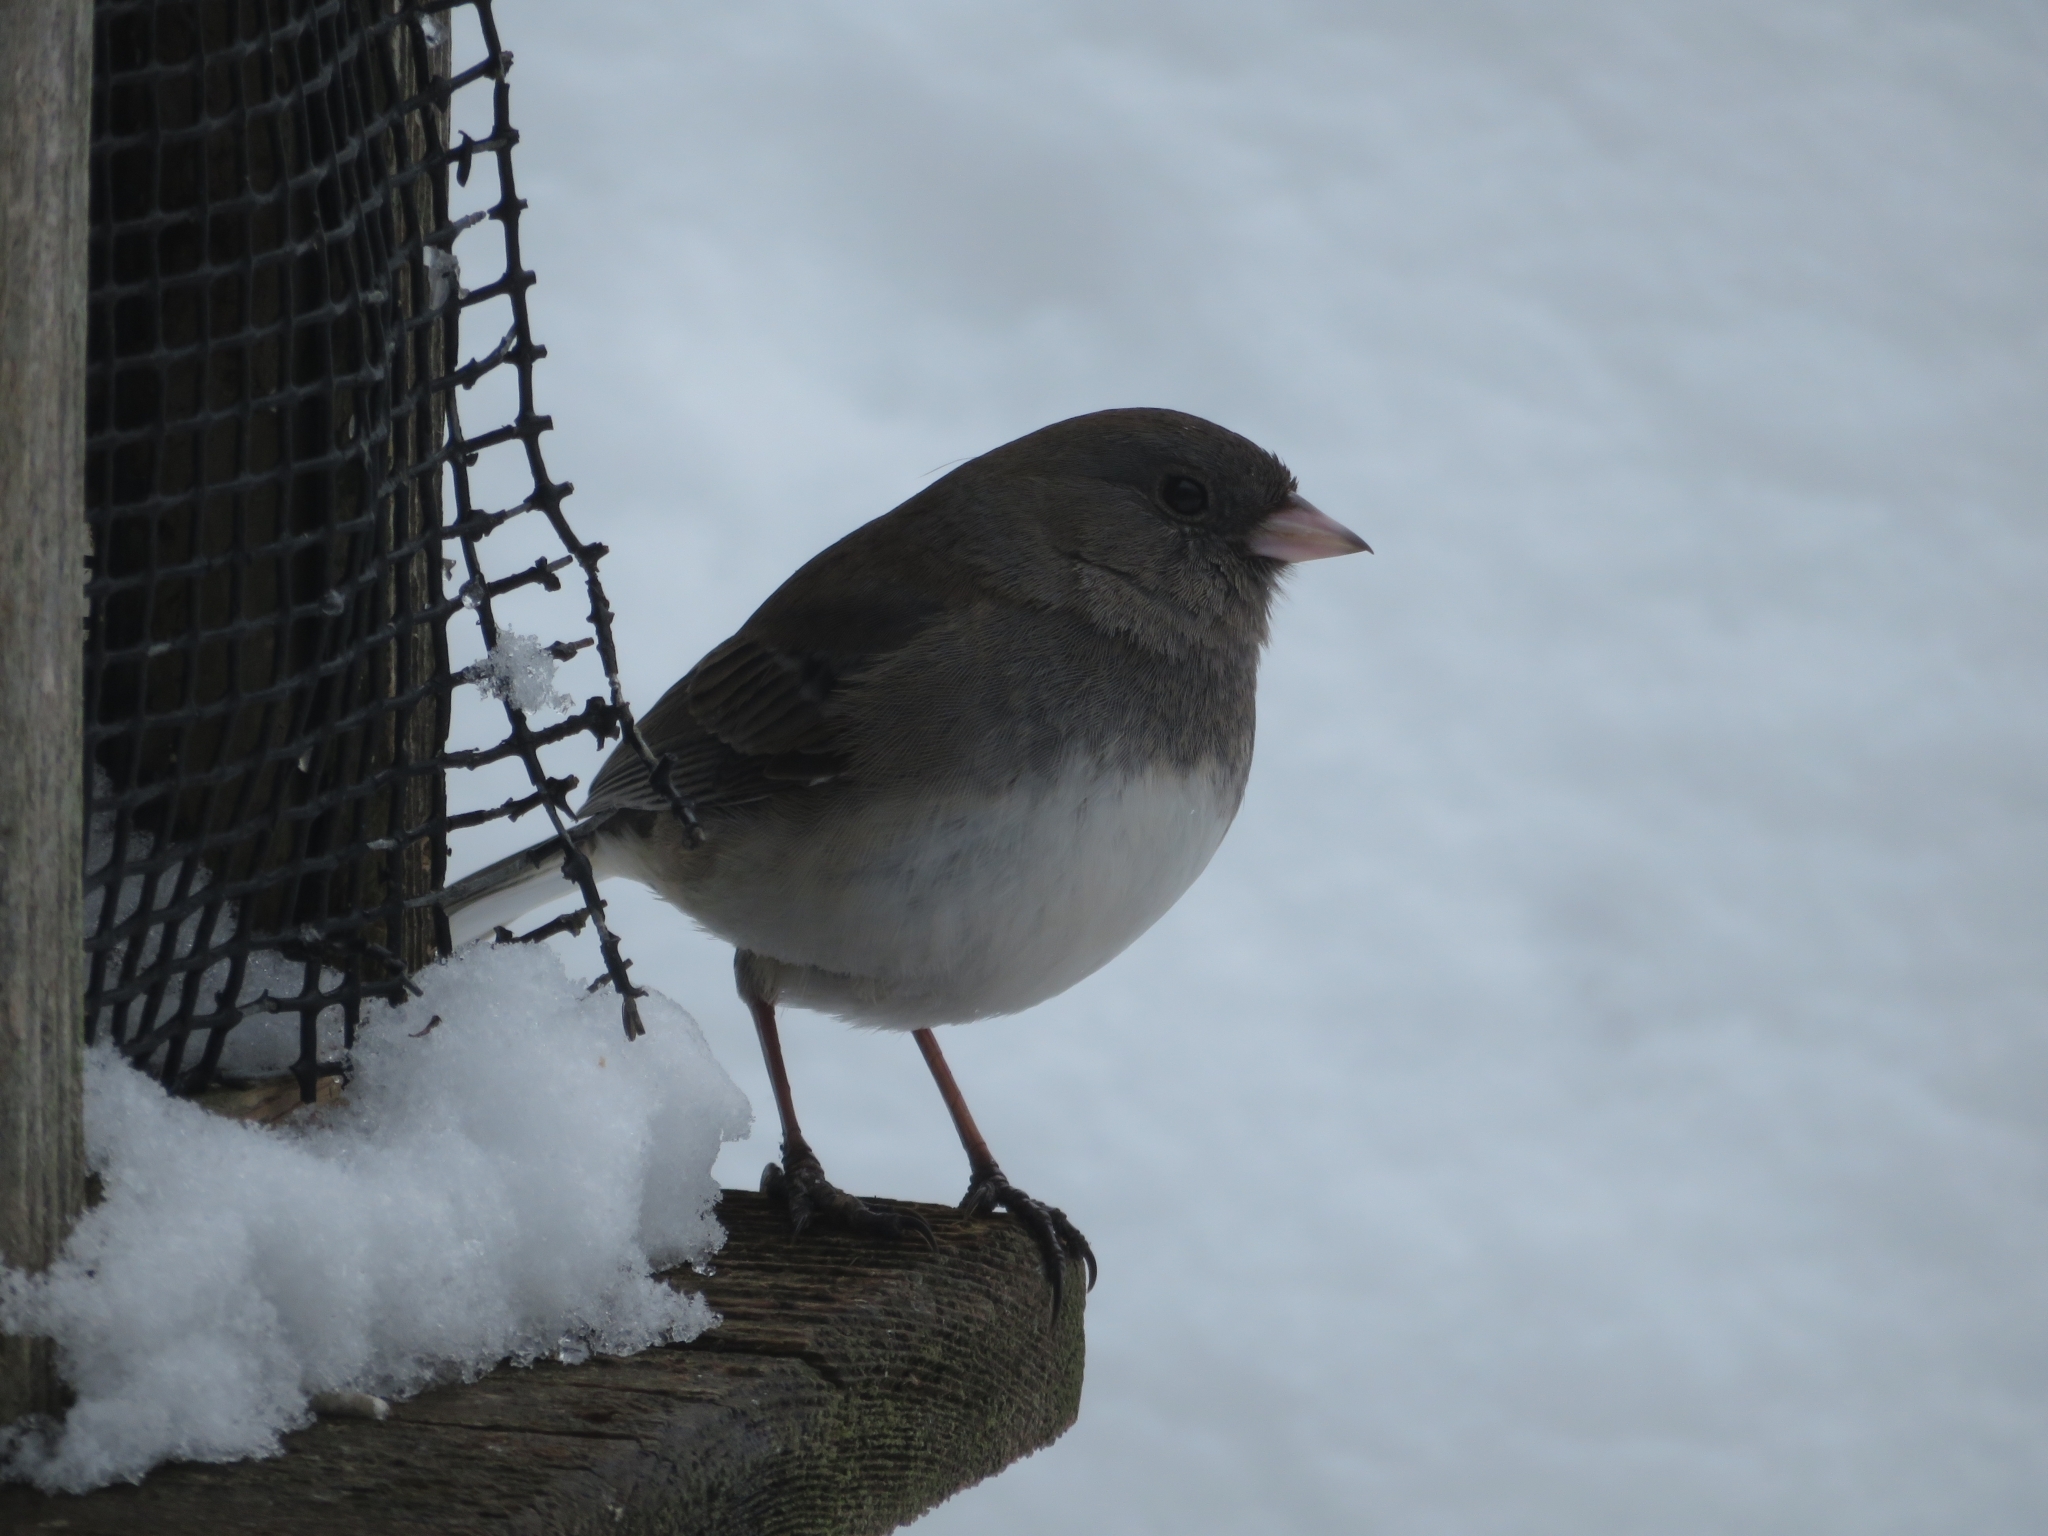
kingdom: Animalia
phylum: Chordata
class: Aves
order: Passeriformes
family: Passerellidae
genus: Junco
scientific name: Junco hyemalis
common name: Dark-eyed junco
